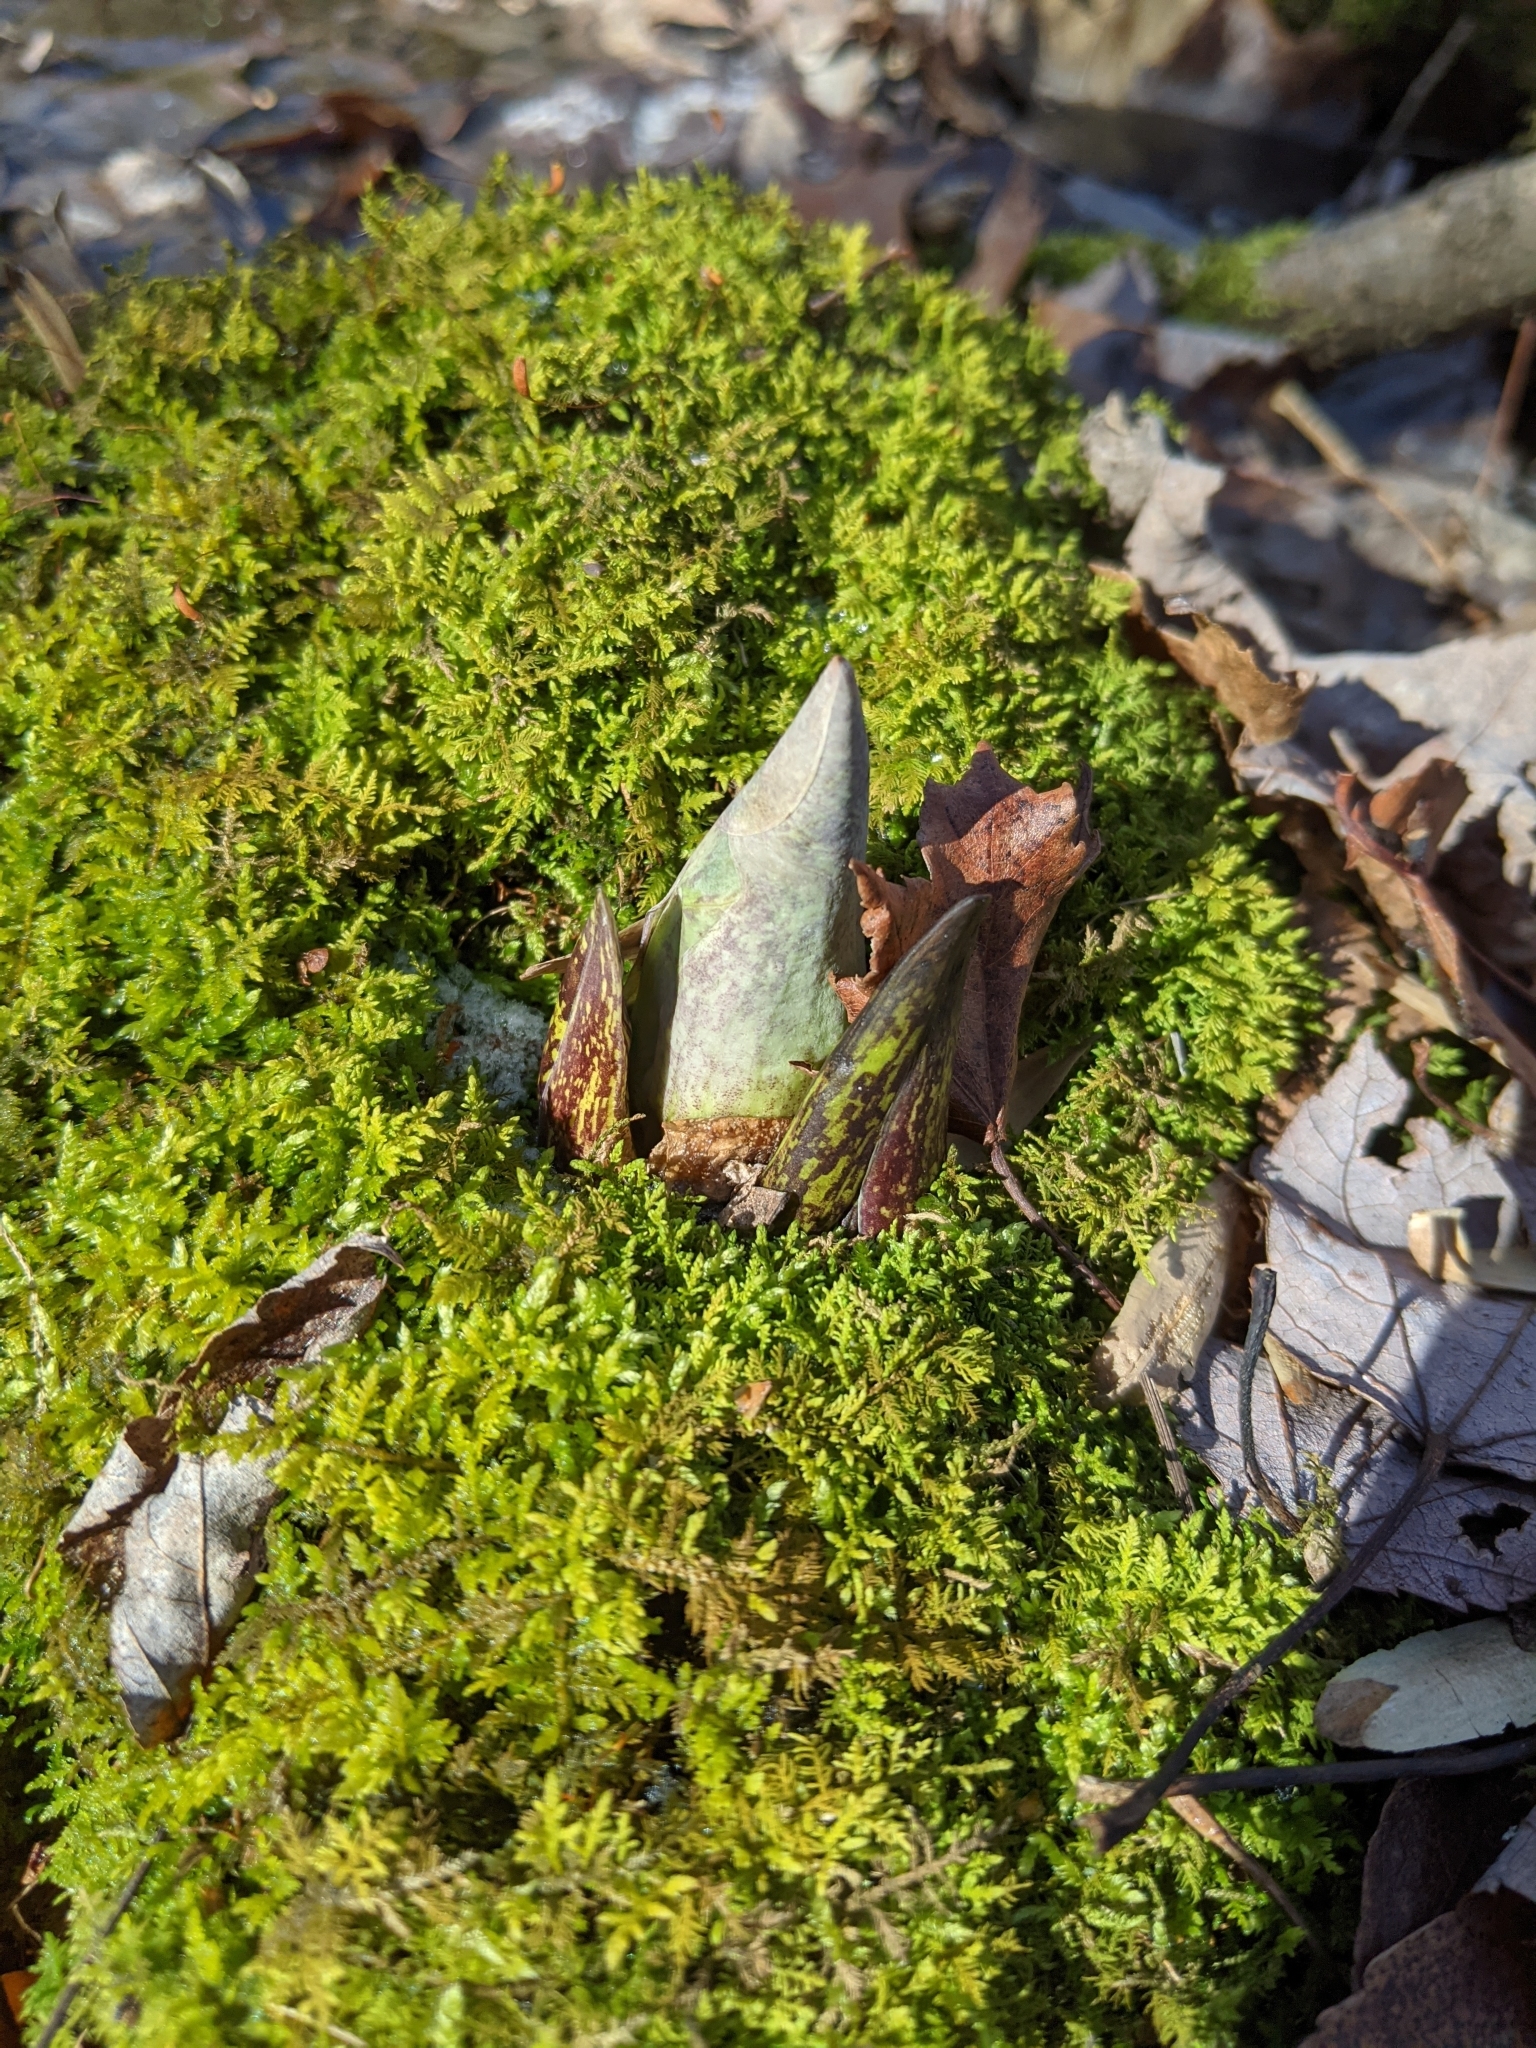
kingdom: Plantae
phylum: Tracheophyta
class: Liliopsida
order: Alismatales
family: Araceae
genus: Symplocarpus
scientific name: Symplocarpus foetidus
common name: Eastern skunk cabbage
